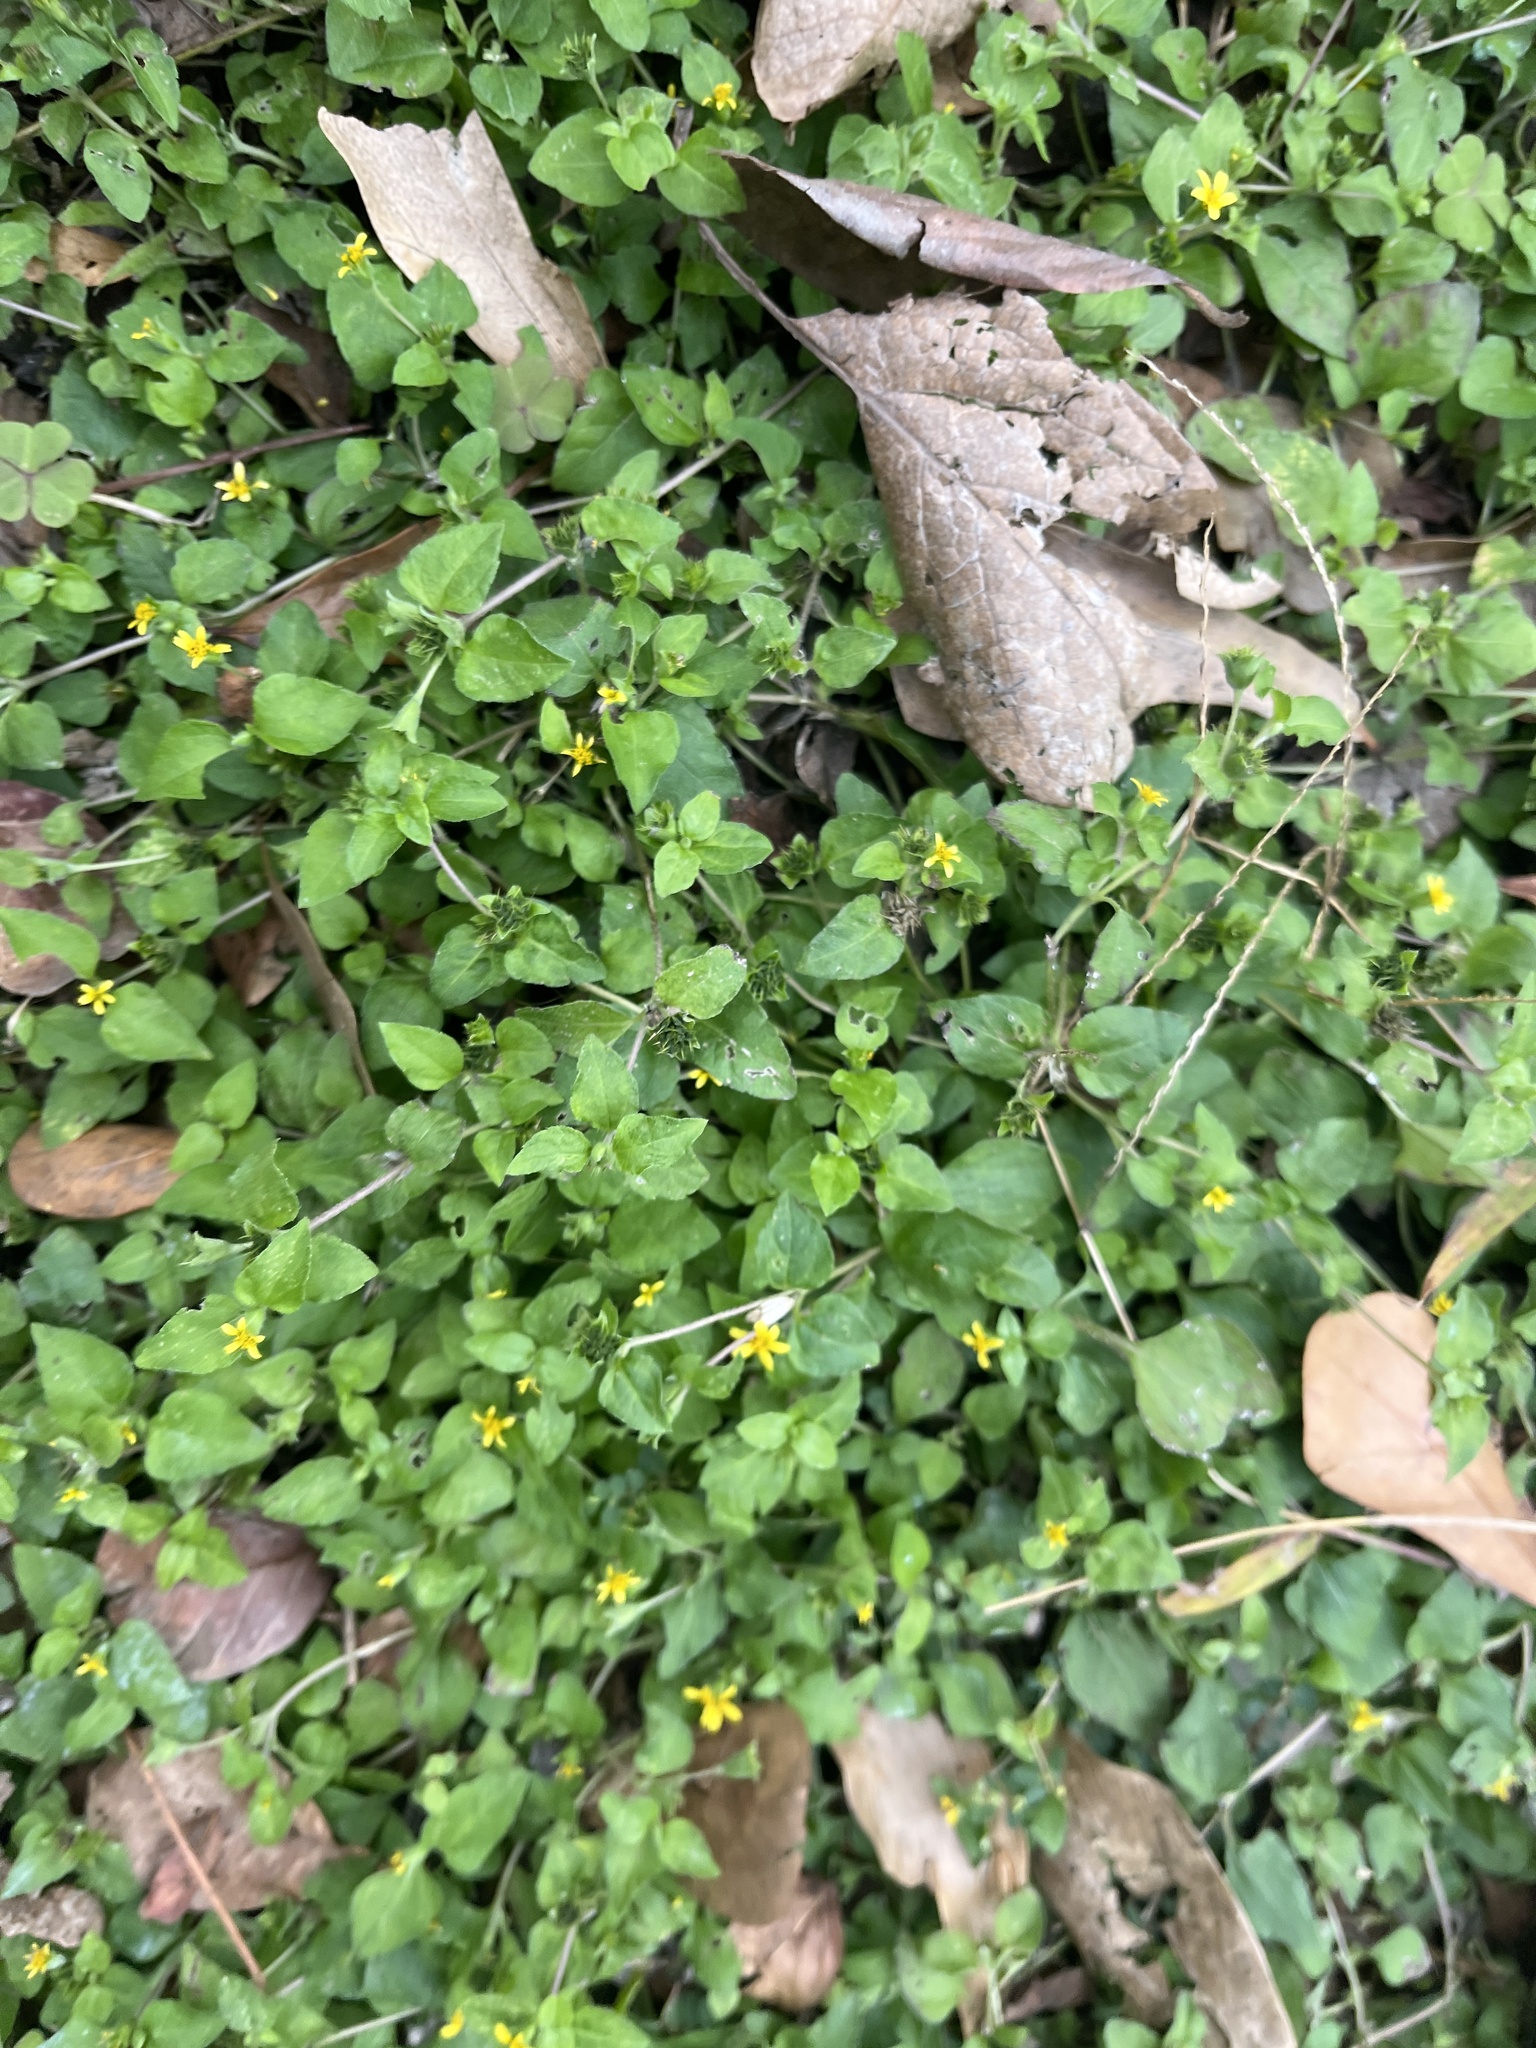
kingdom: Plantae
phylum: Tracheophyta
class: Magnoliopsida
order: Asterales
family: Asteraceae
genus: Calyptocarpus
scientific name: Calyptocarpus vialis
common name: Straggler daisy
